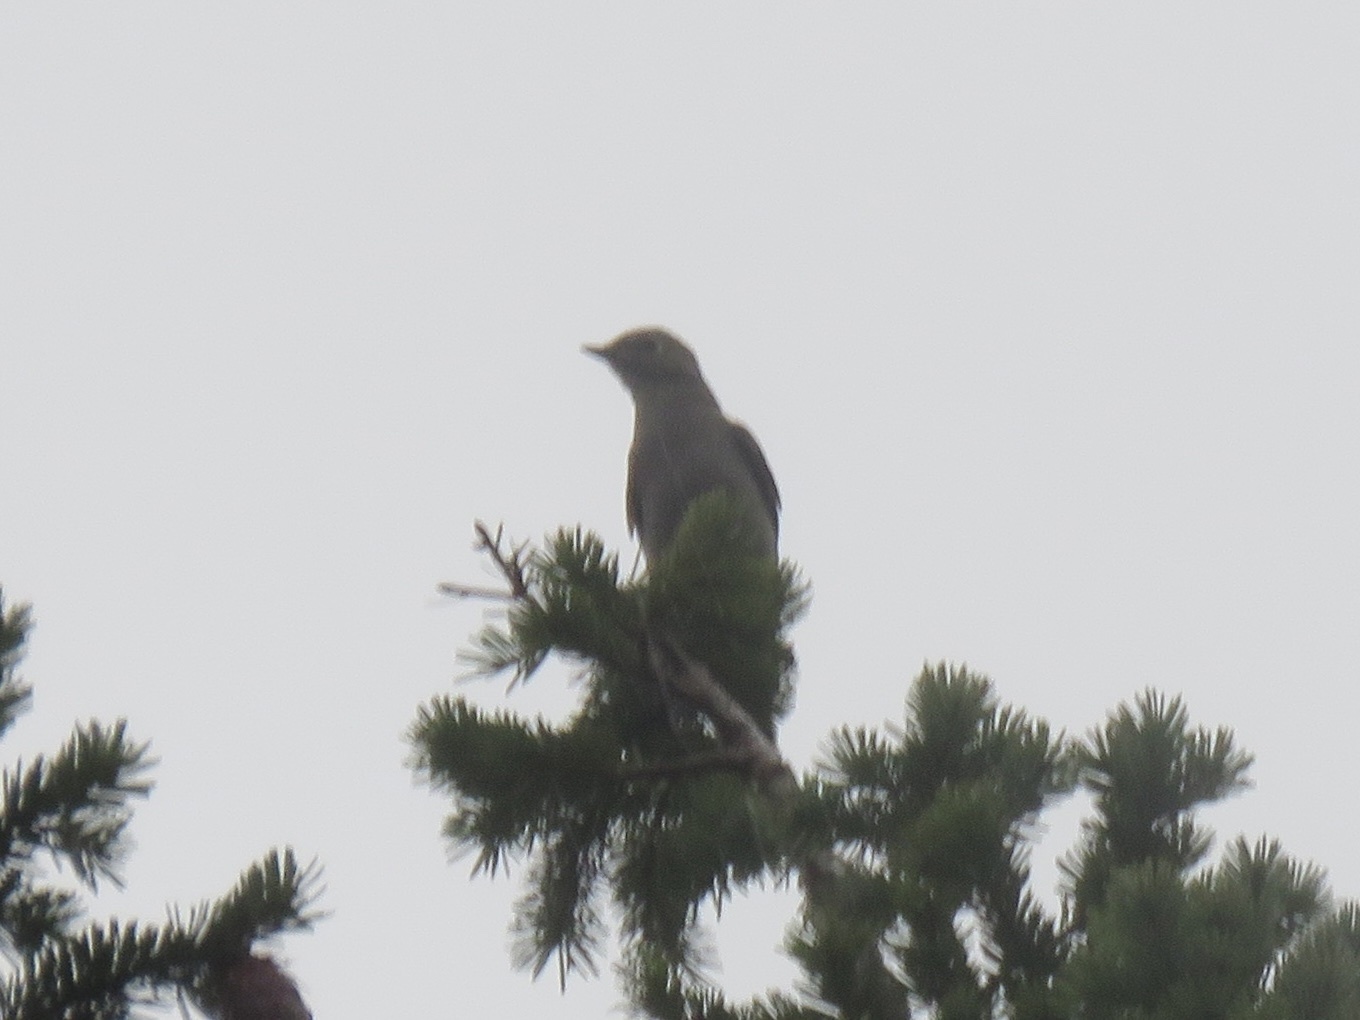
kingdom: Animalia
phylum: Chordata
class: Aves
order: Passeriformes
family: Turdidae
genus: Myadestes
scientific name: Myadestes townsendi
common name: Townsend's solitaire
